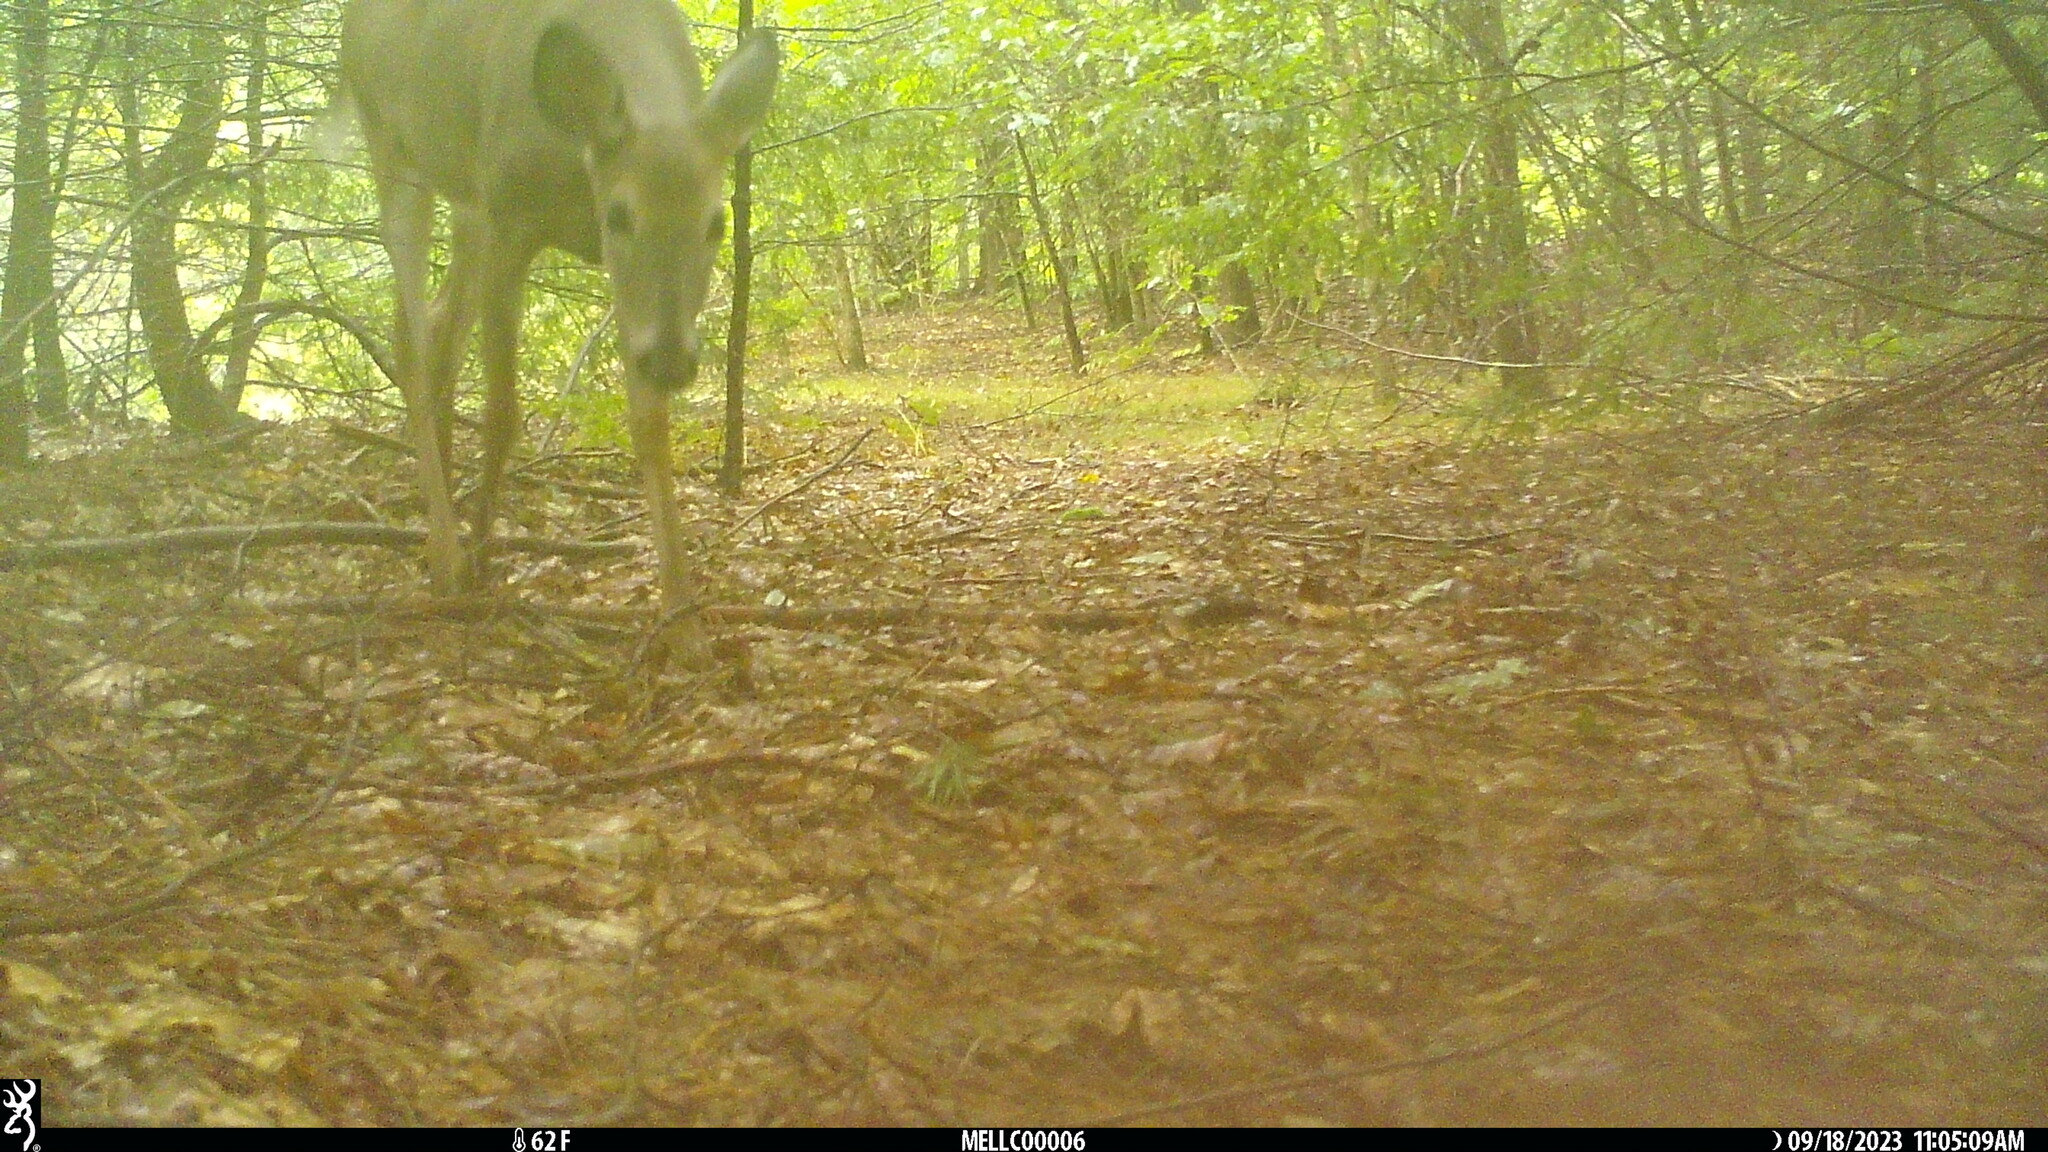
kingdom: Animalia
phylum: Chordata
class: Mammalia
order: Artiodactyla
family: Cervidae
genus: Odocoileus
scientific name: Odocoileus virginianus
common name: White-tailed deer
